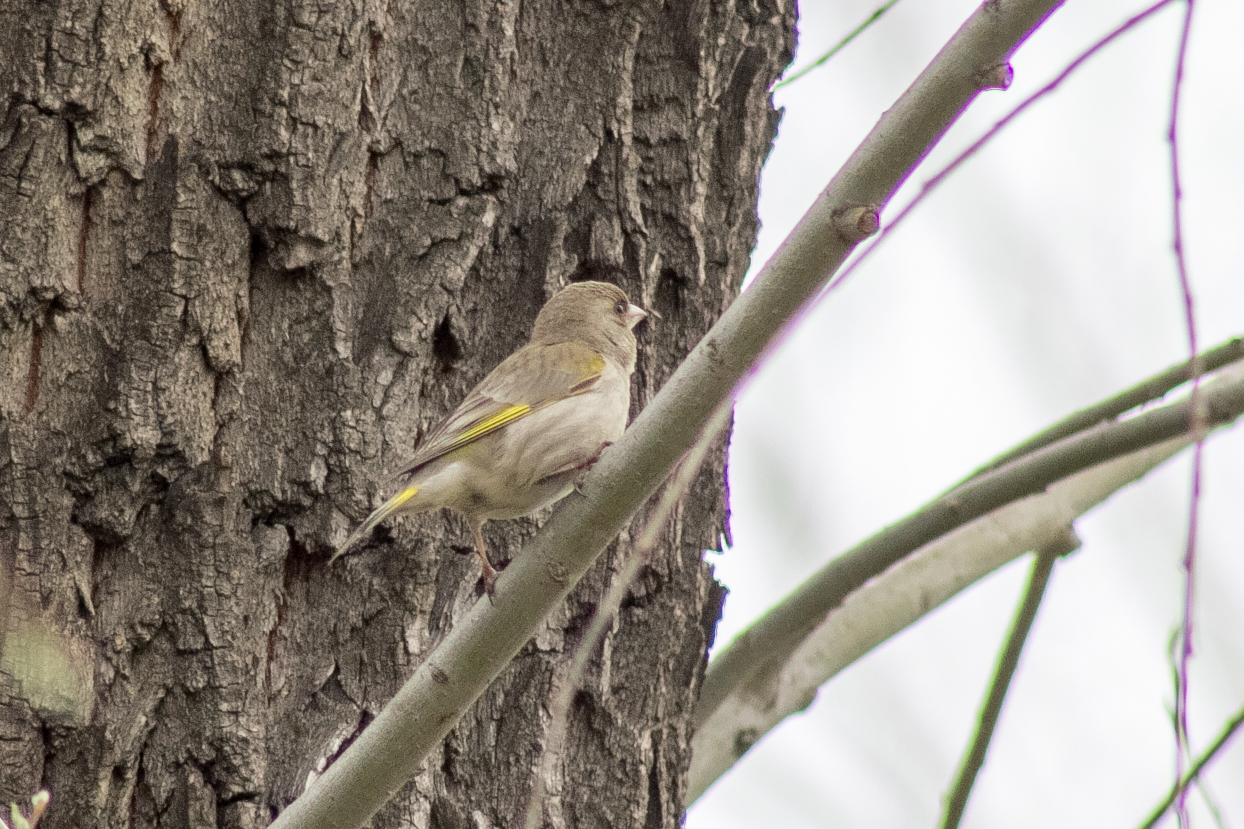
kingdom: Plantae
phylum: Tracheophyta
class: Liliopsida
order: Poales
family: Poaceae
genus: Chloris
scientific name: Chloris chloris
